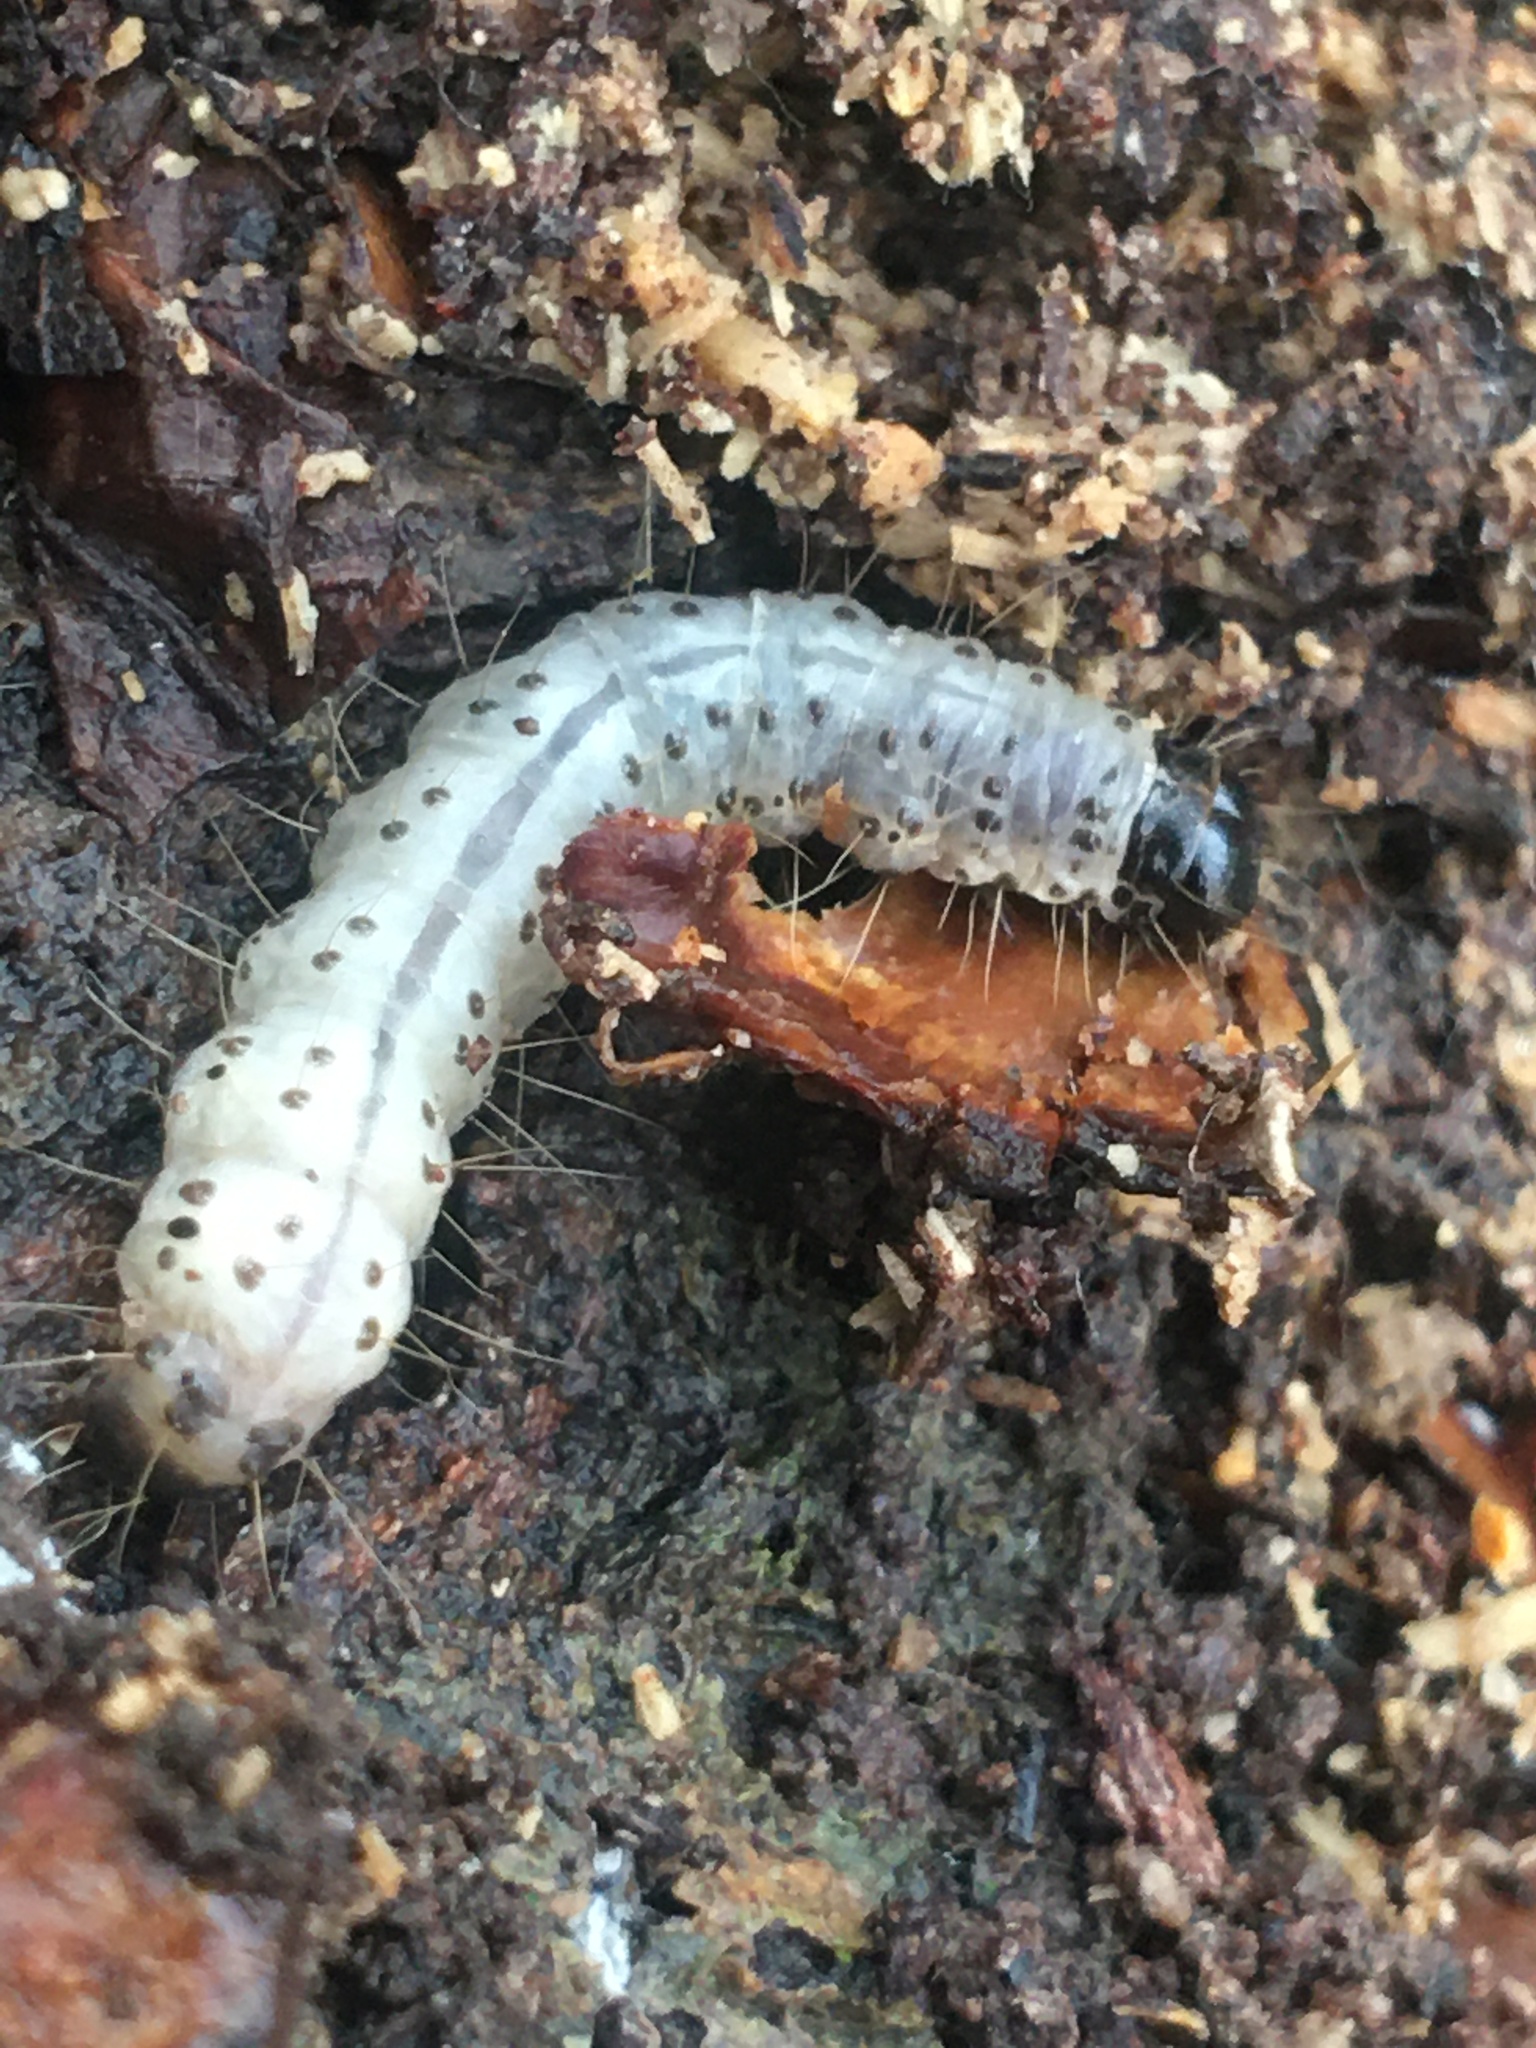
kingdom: Animalia
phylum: Arthropoda
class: Insecta
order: Lepidoptera
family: Erebidae
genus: Scolecocampa
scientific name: Scolecocampa liburna
